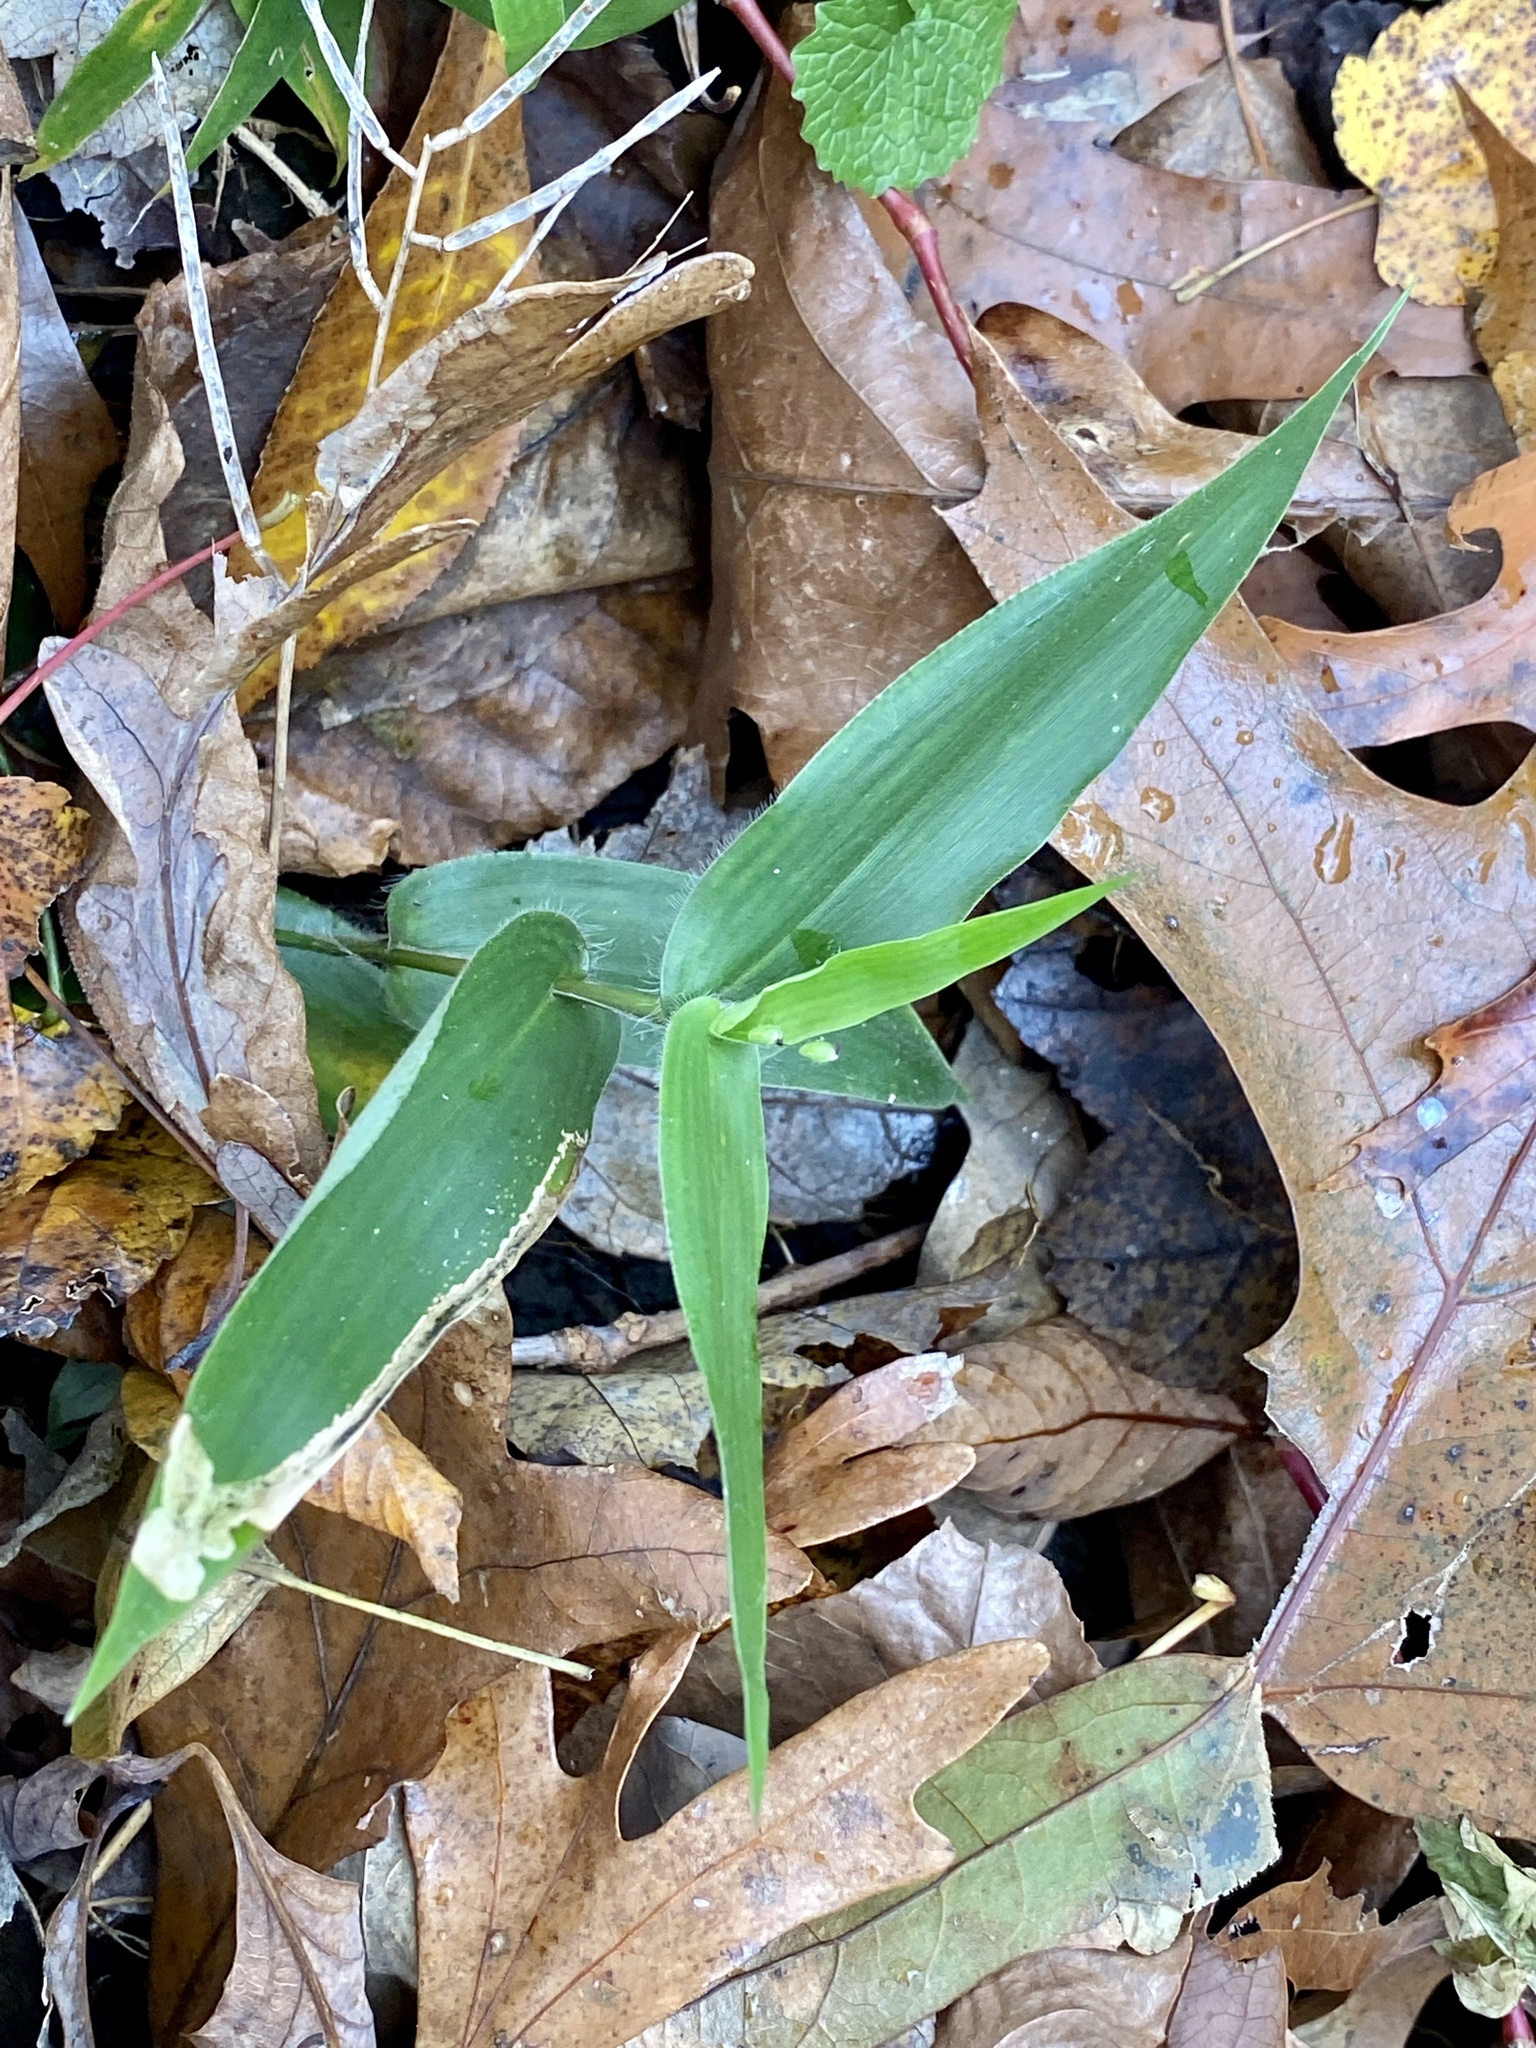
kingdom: Plantae
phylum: Tracheophyta
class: Liliopsida
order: Poales
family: Poaceae
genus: Dichanthelium
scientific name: Dichanthelium clandestinum
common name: Deer-tongue grass
